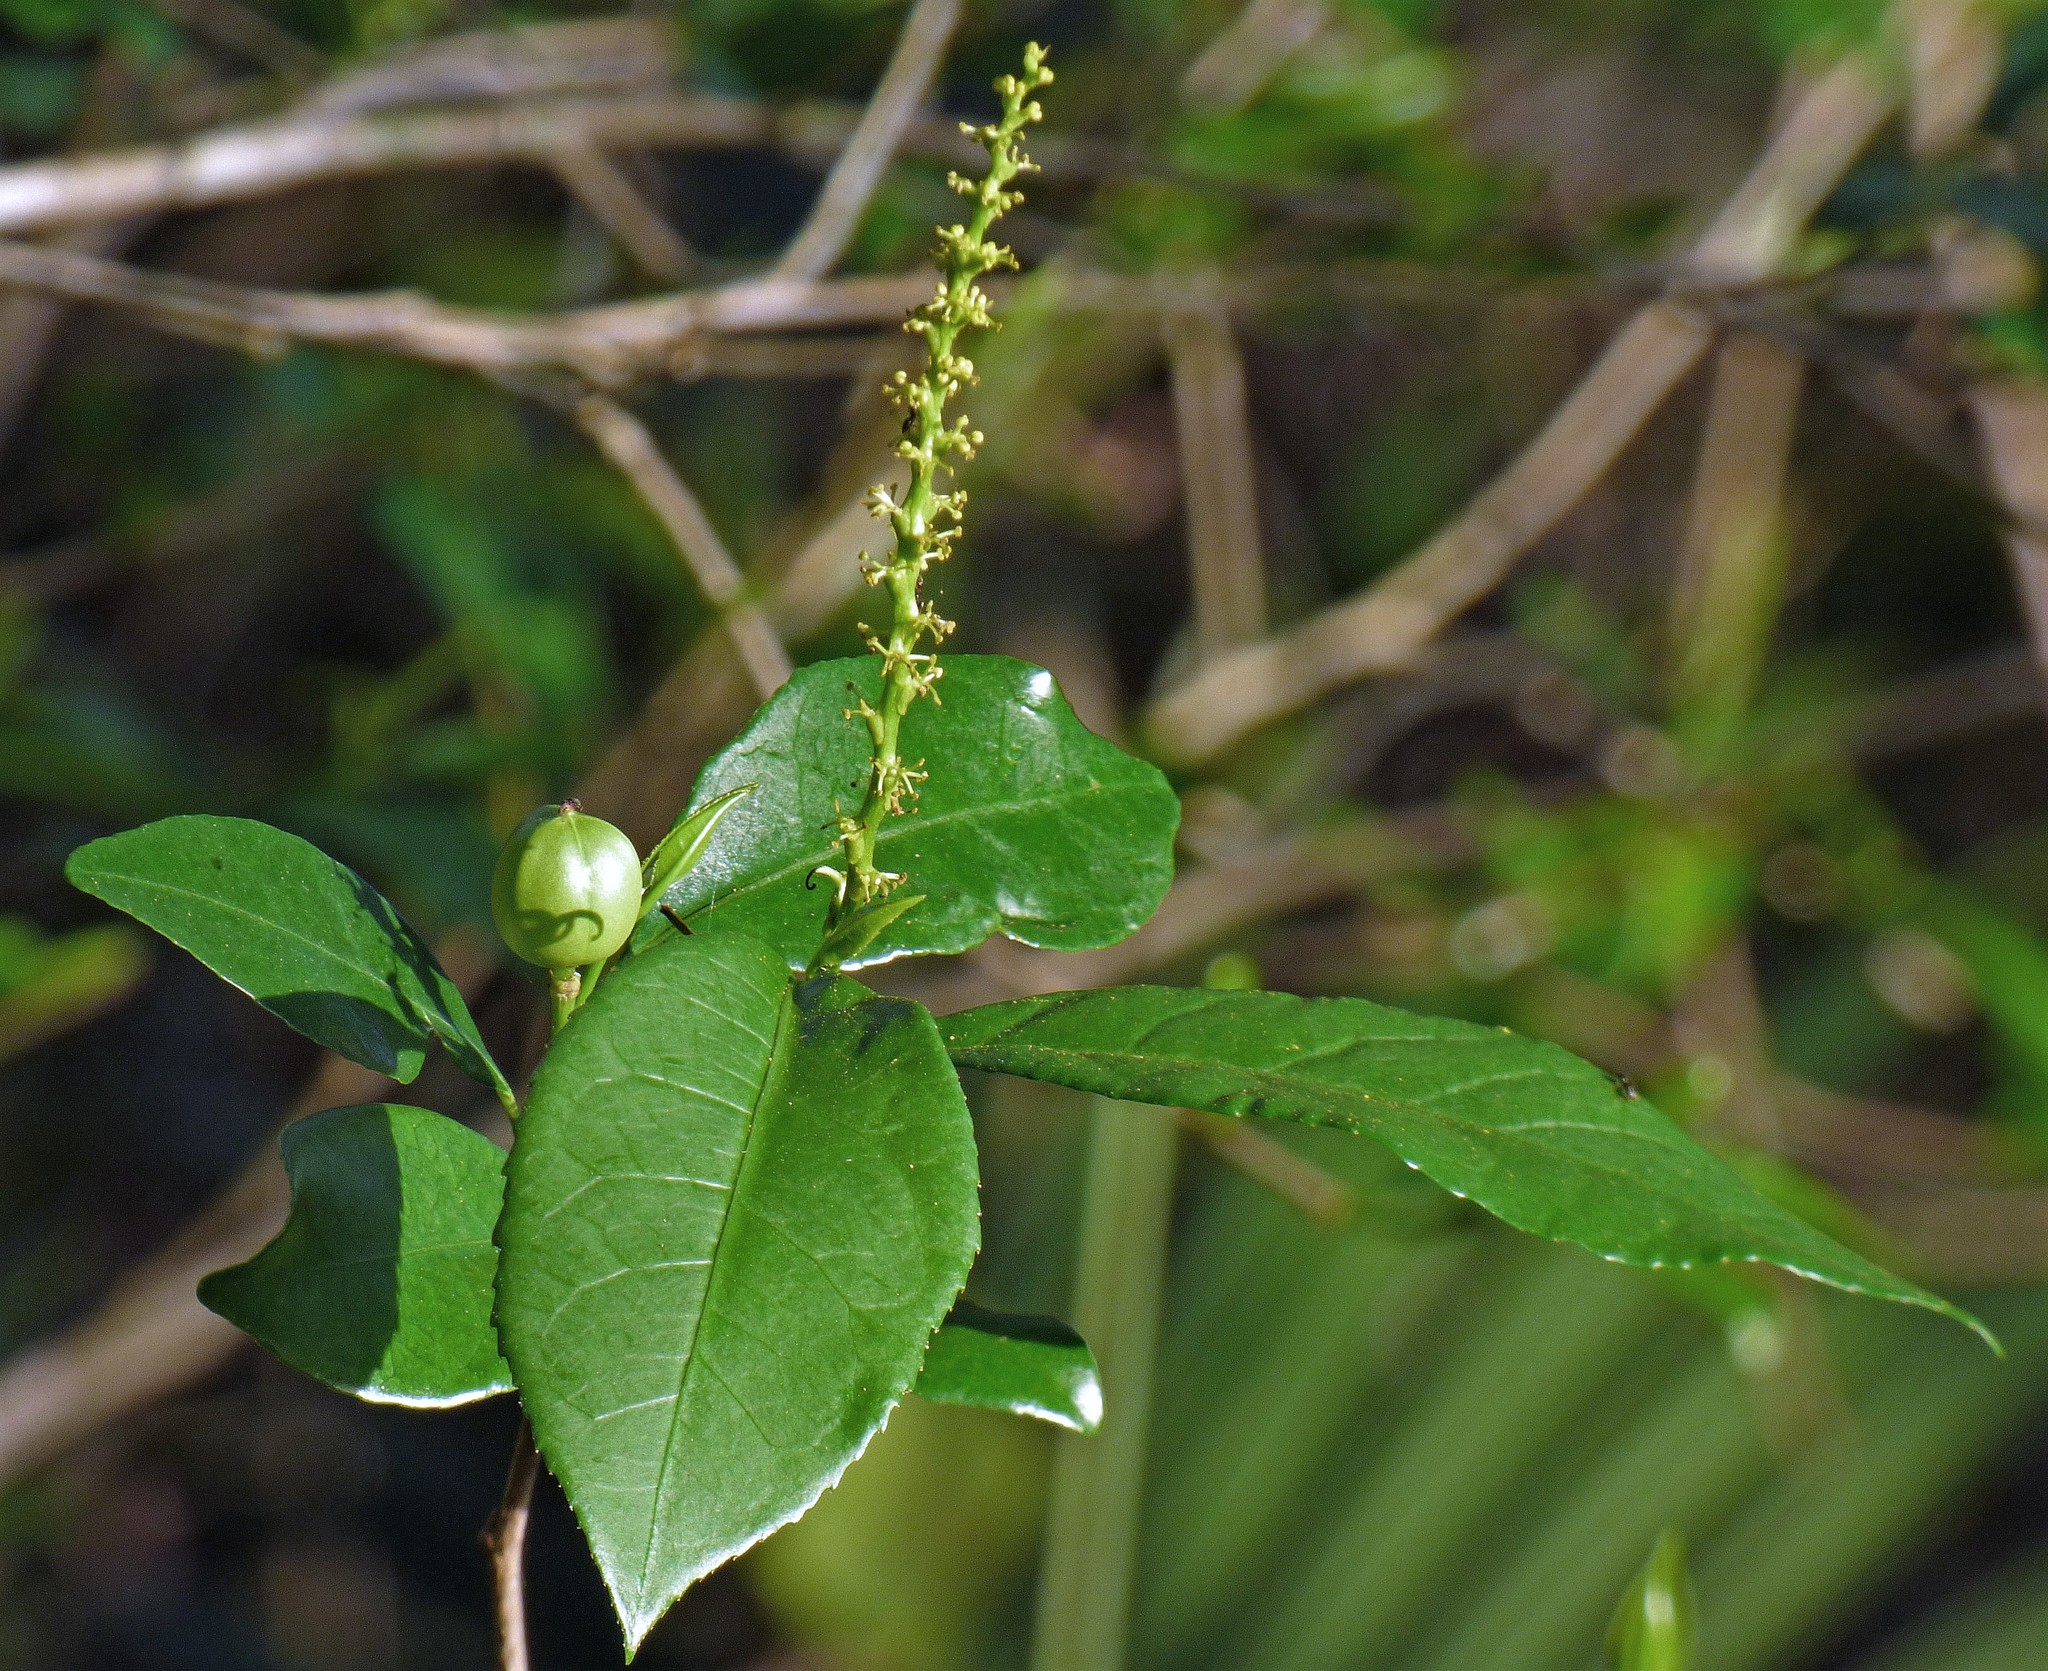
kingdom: Plantae
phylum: Tracheophyta
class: Magnoliopsida
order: Malpighiales
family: Euphorbiaceae
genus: Sebastiania
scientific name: Sebastiania brasiliensis
